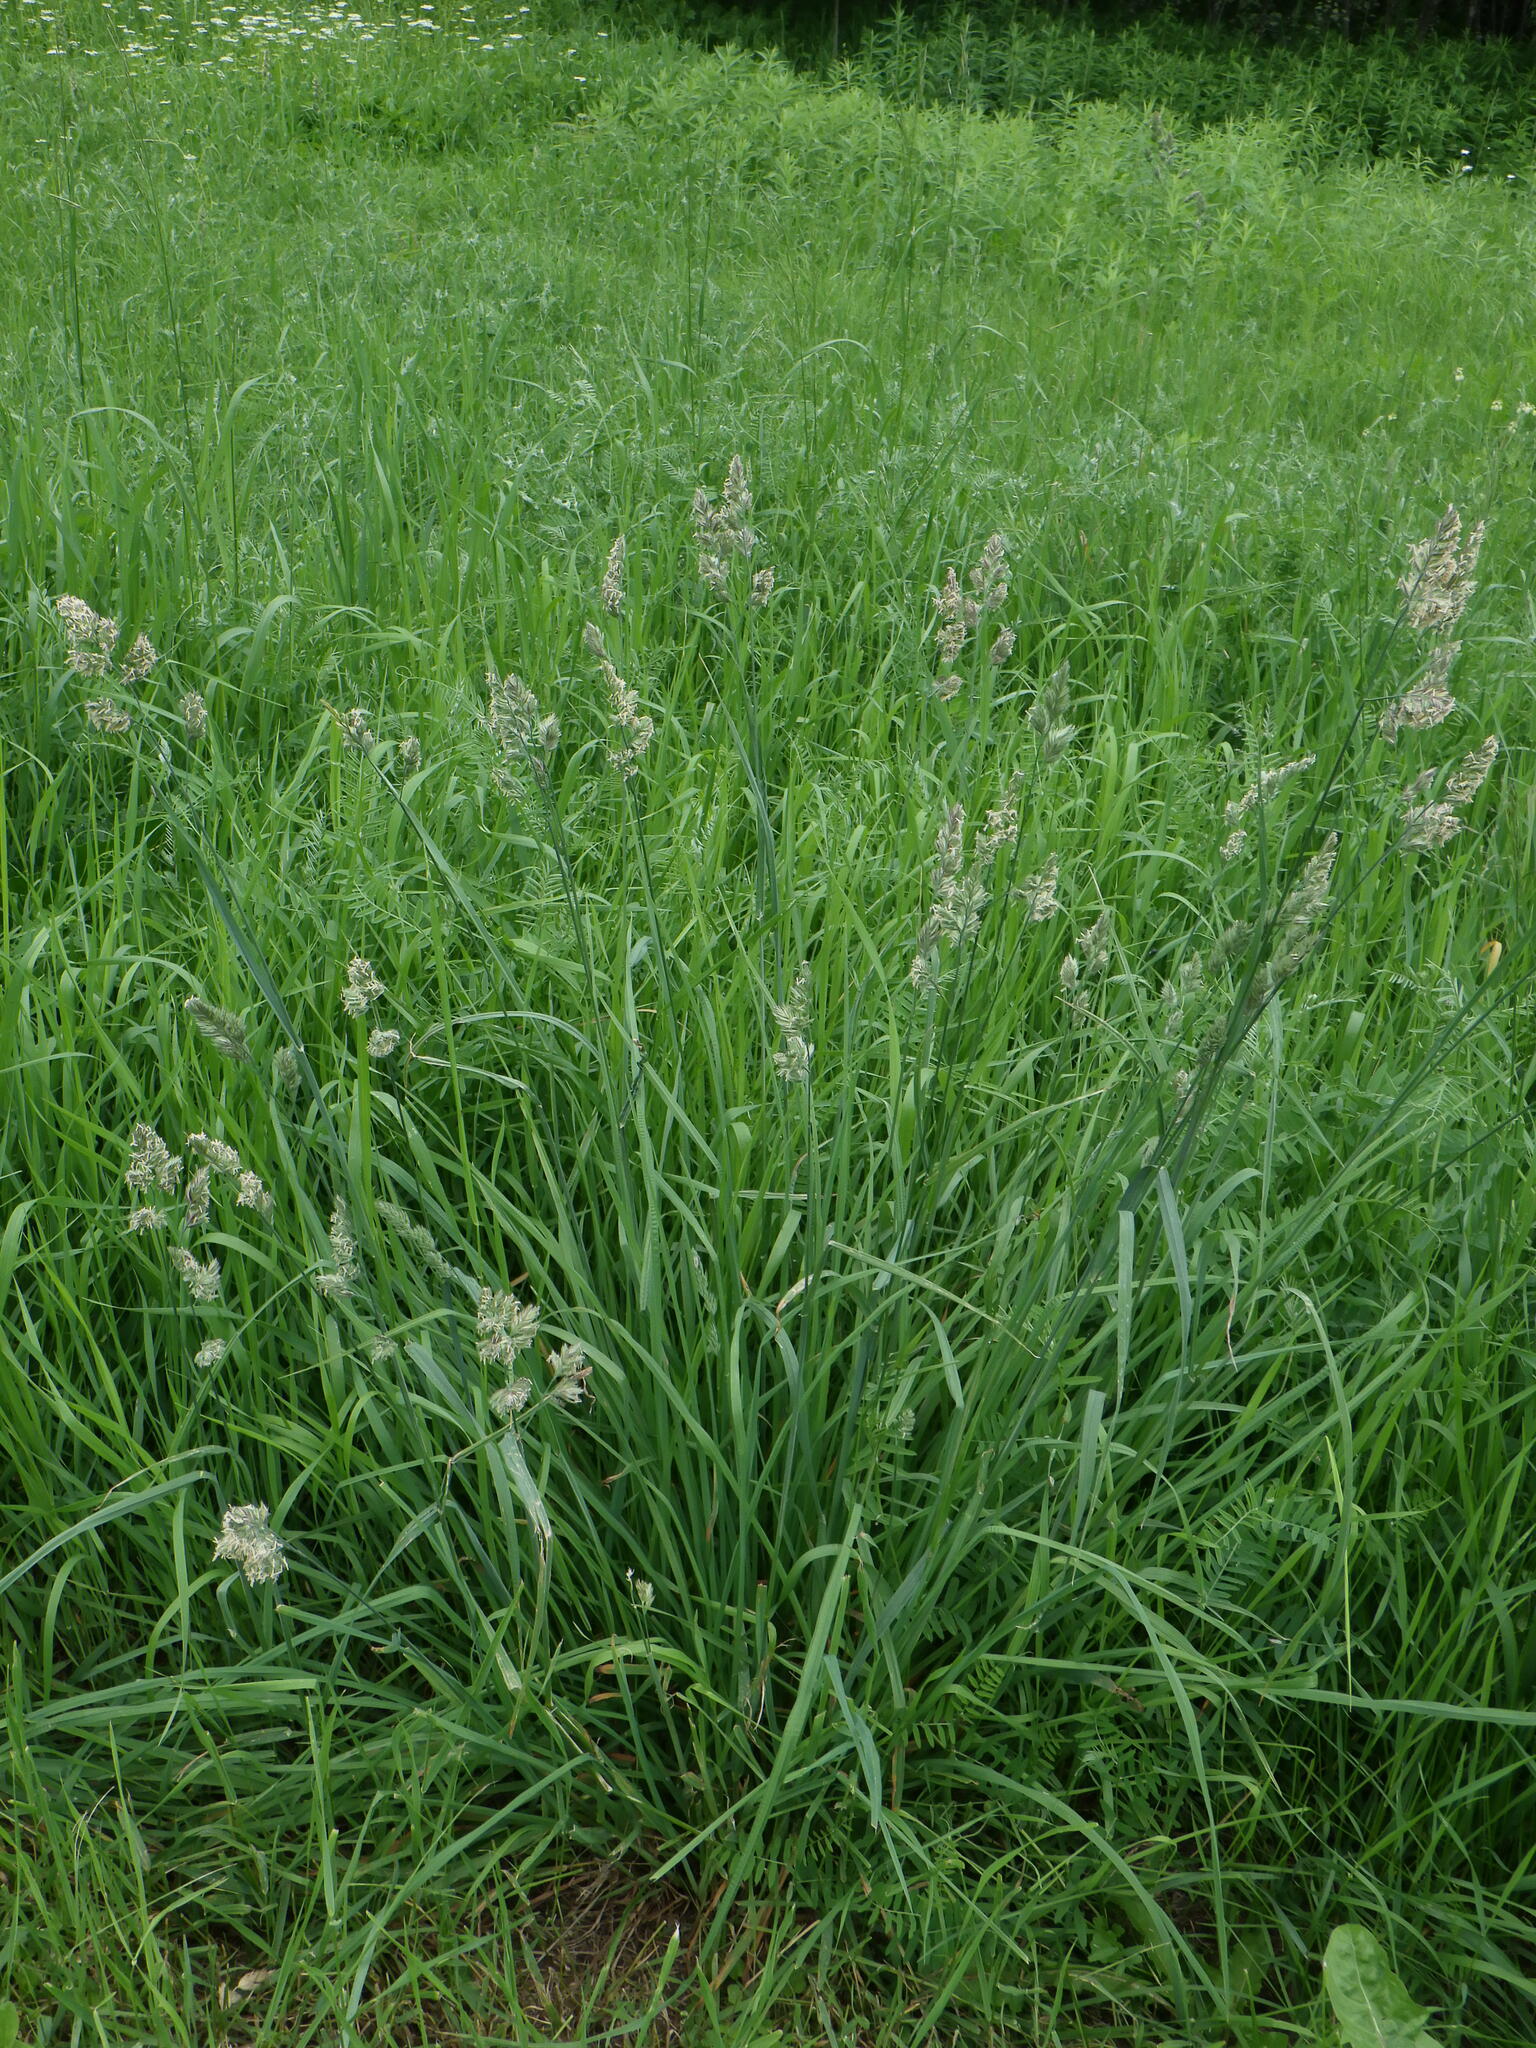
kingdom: Plantae
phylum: Tracheophyta
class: Liliopsida
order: Poales
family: Poaceae
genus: Dactylis
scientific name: Dactylis glomerata
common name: Orchardgrass
